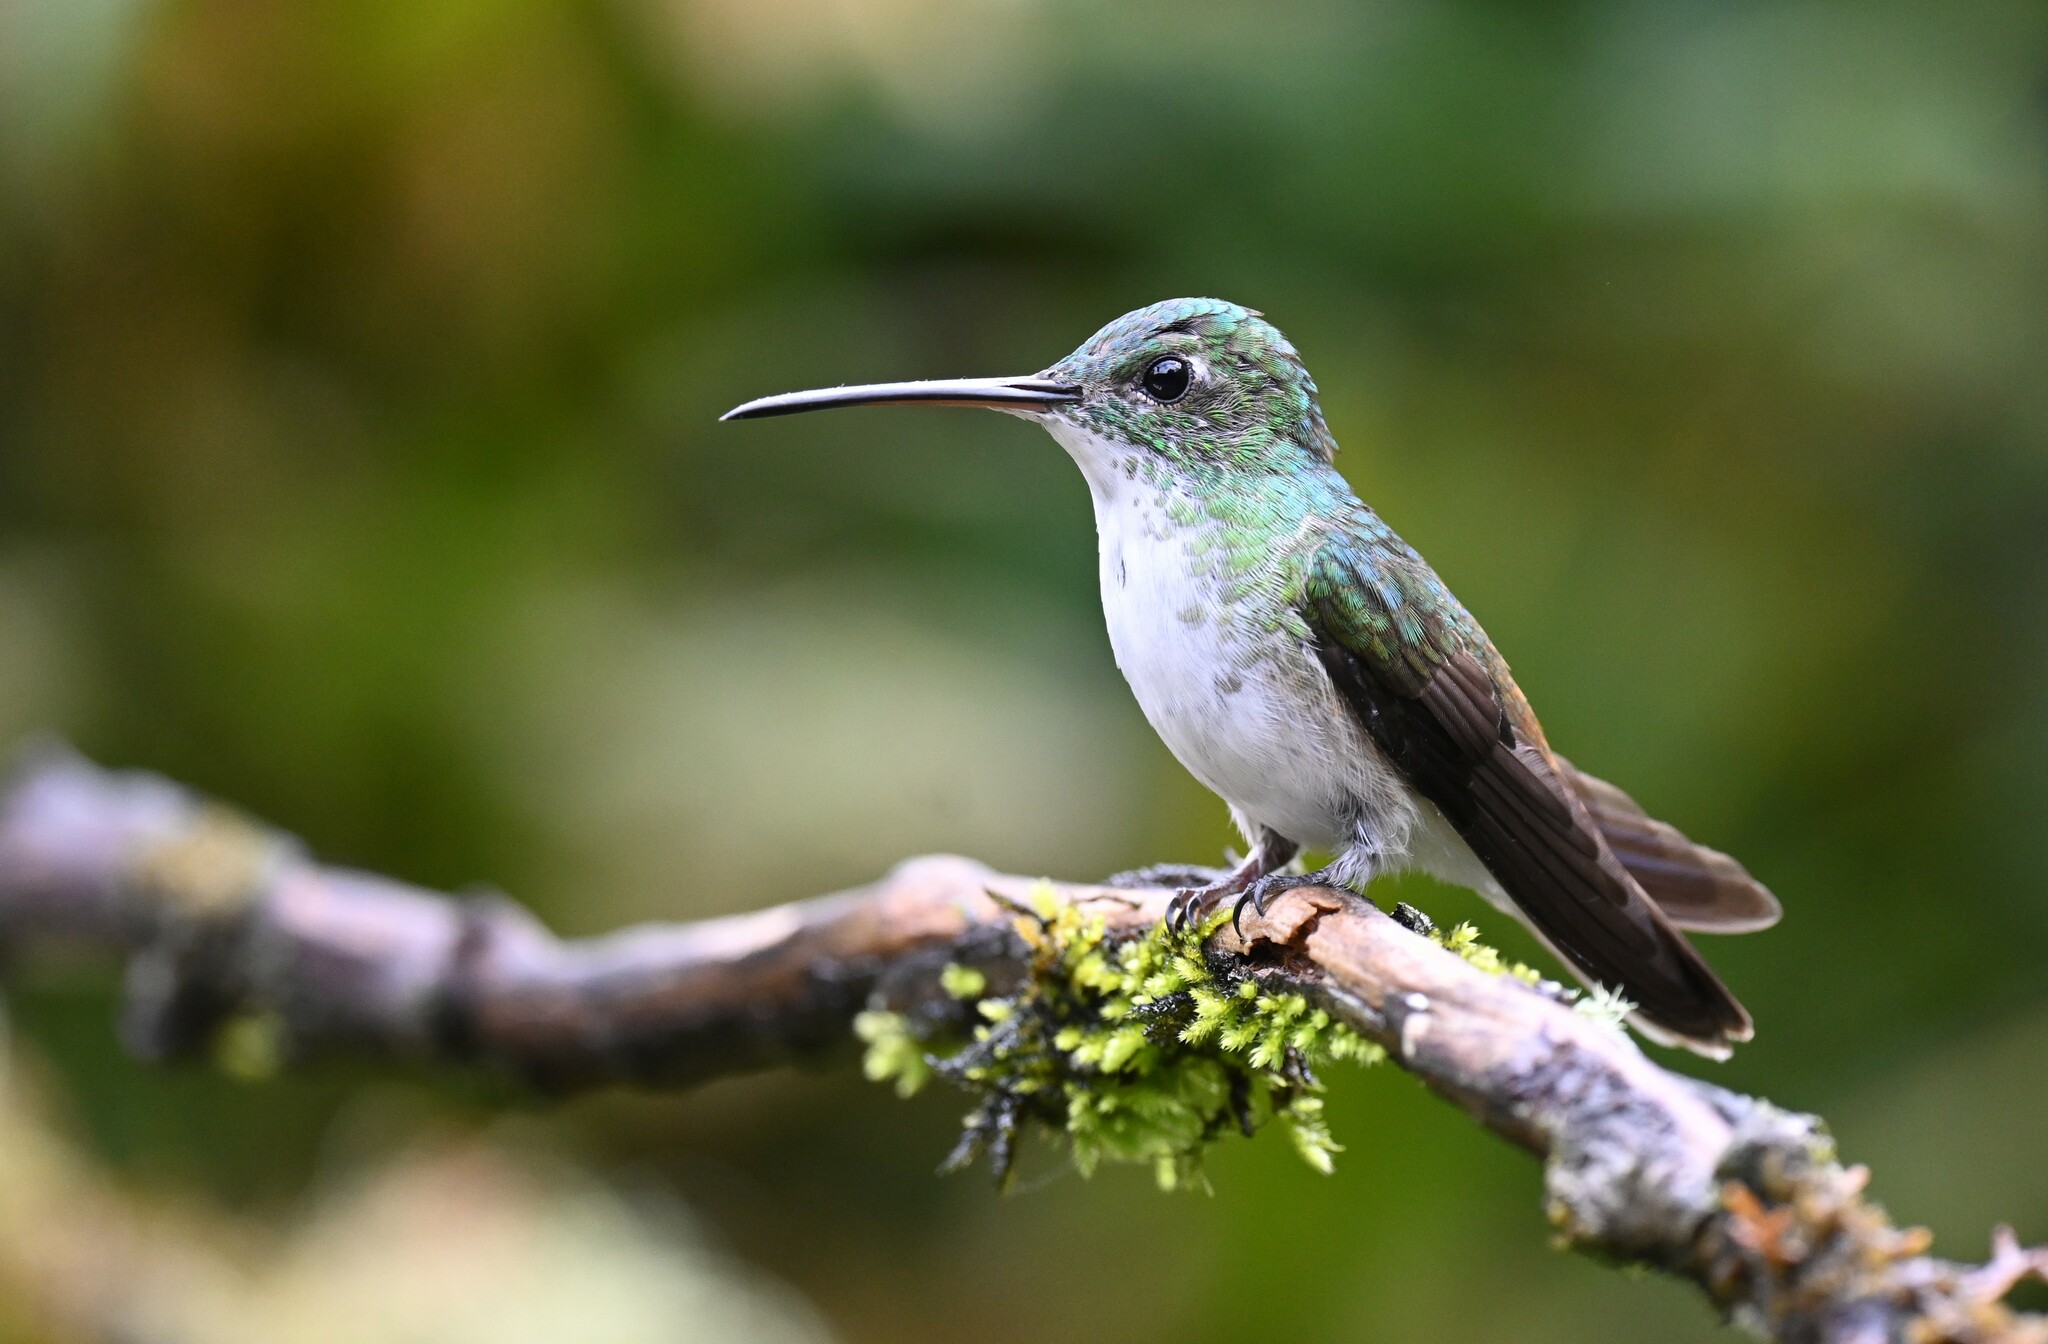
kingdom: Animalia
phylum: Chordata
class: Aves
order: Apodiformes
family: Trochilidae
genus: Uranomitra
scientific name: Uranomitra franciae
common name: Andean emerald
